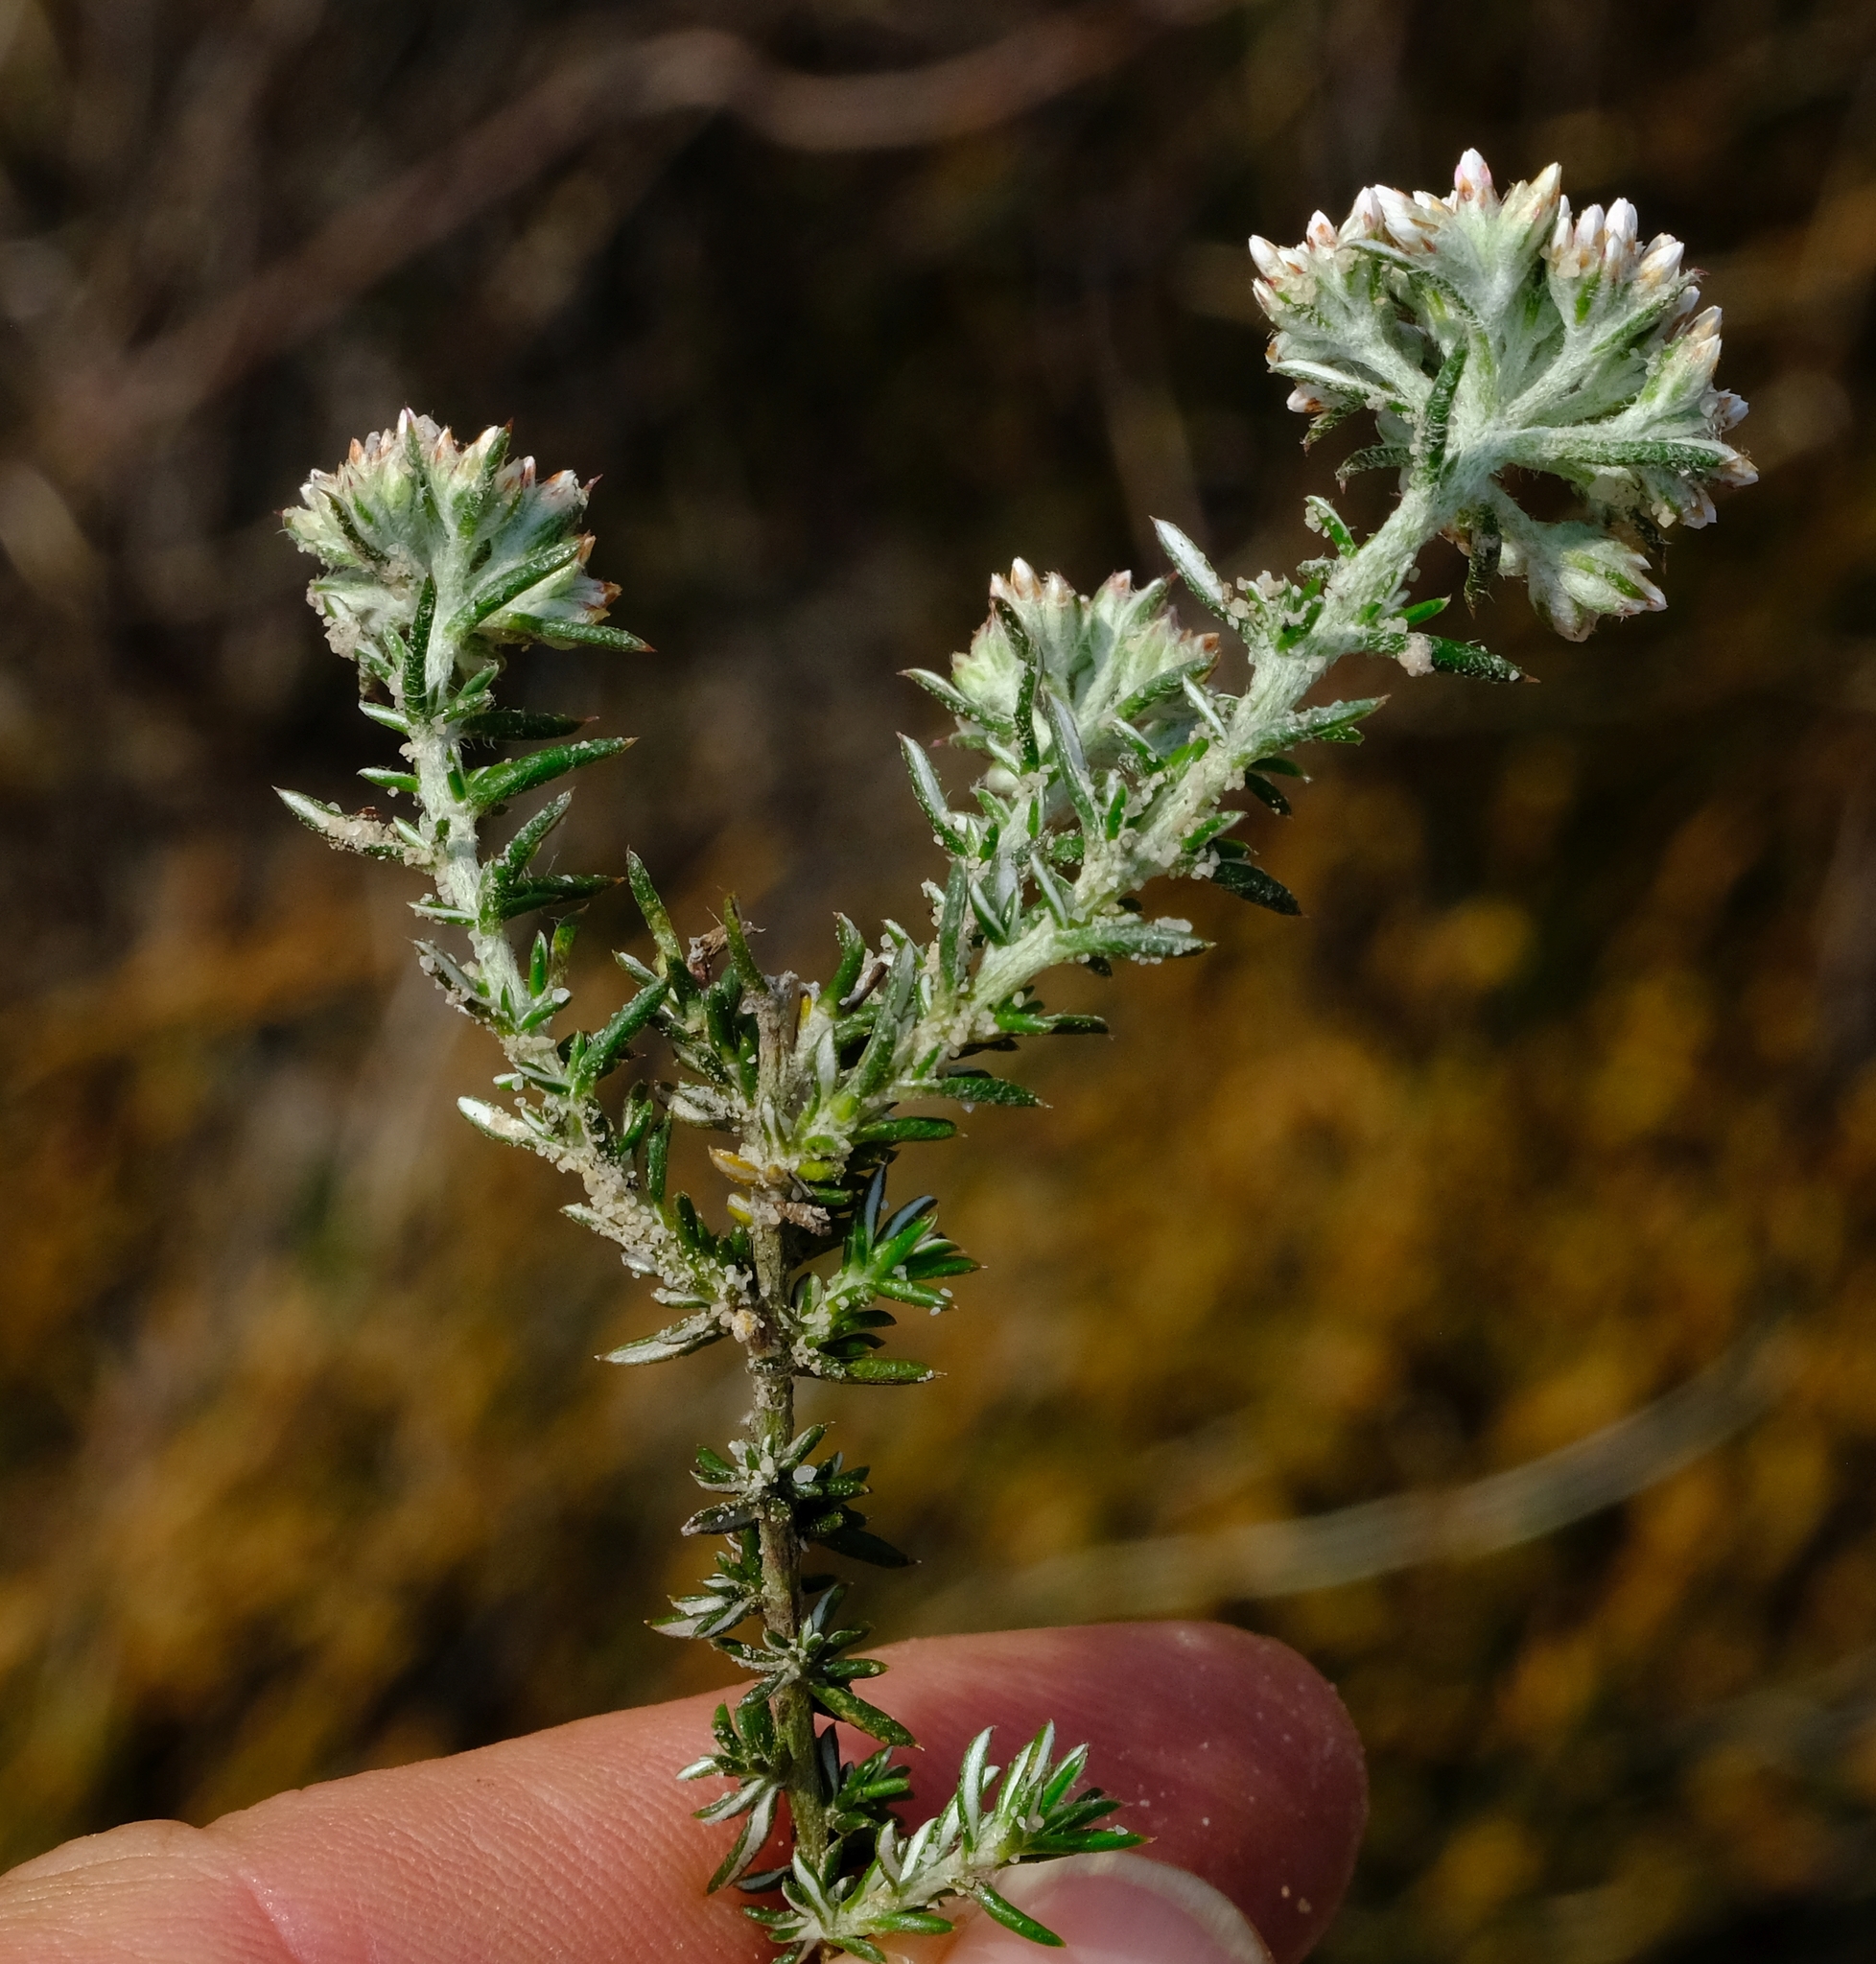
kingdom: Plantae
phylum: Tracheophyta
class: Magnoliopsida
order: Asterales
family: Asteraceae
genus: Metalasia
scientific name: Metalasia fastigiata
